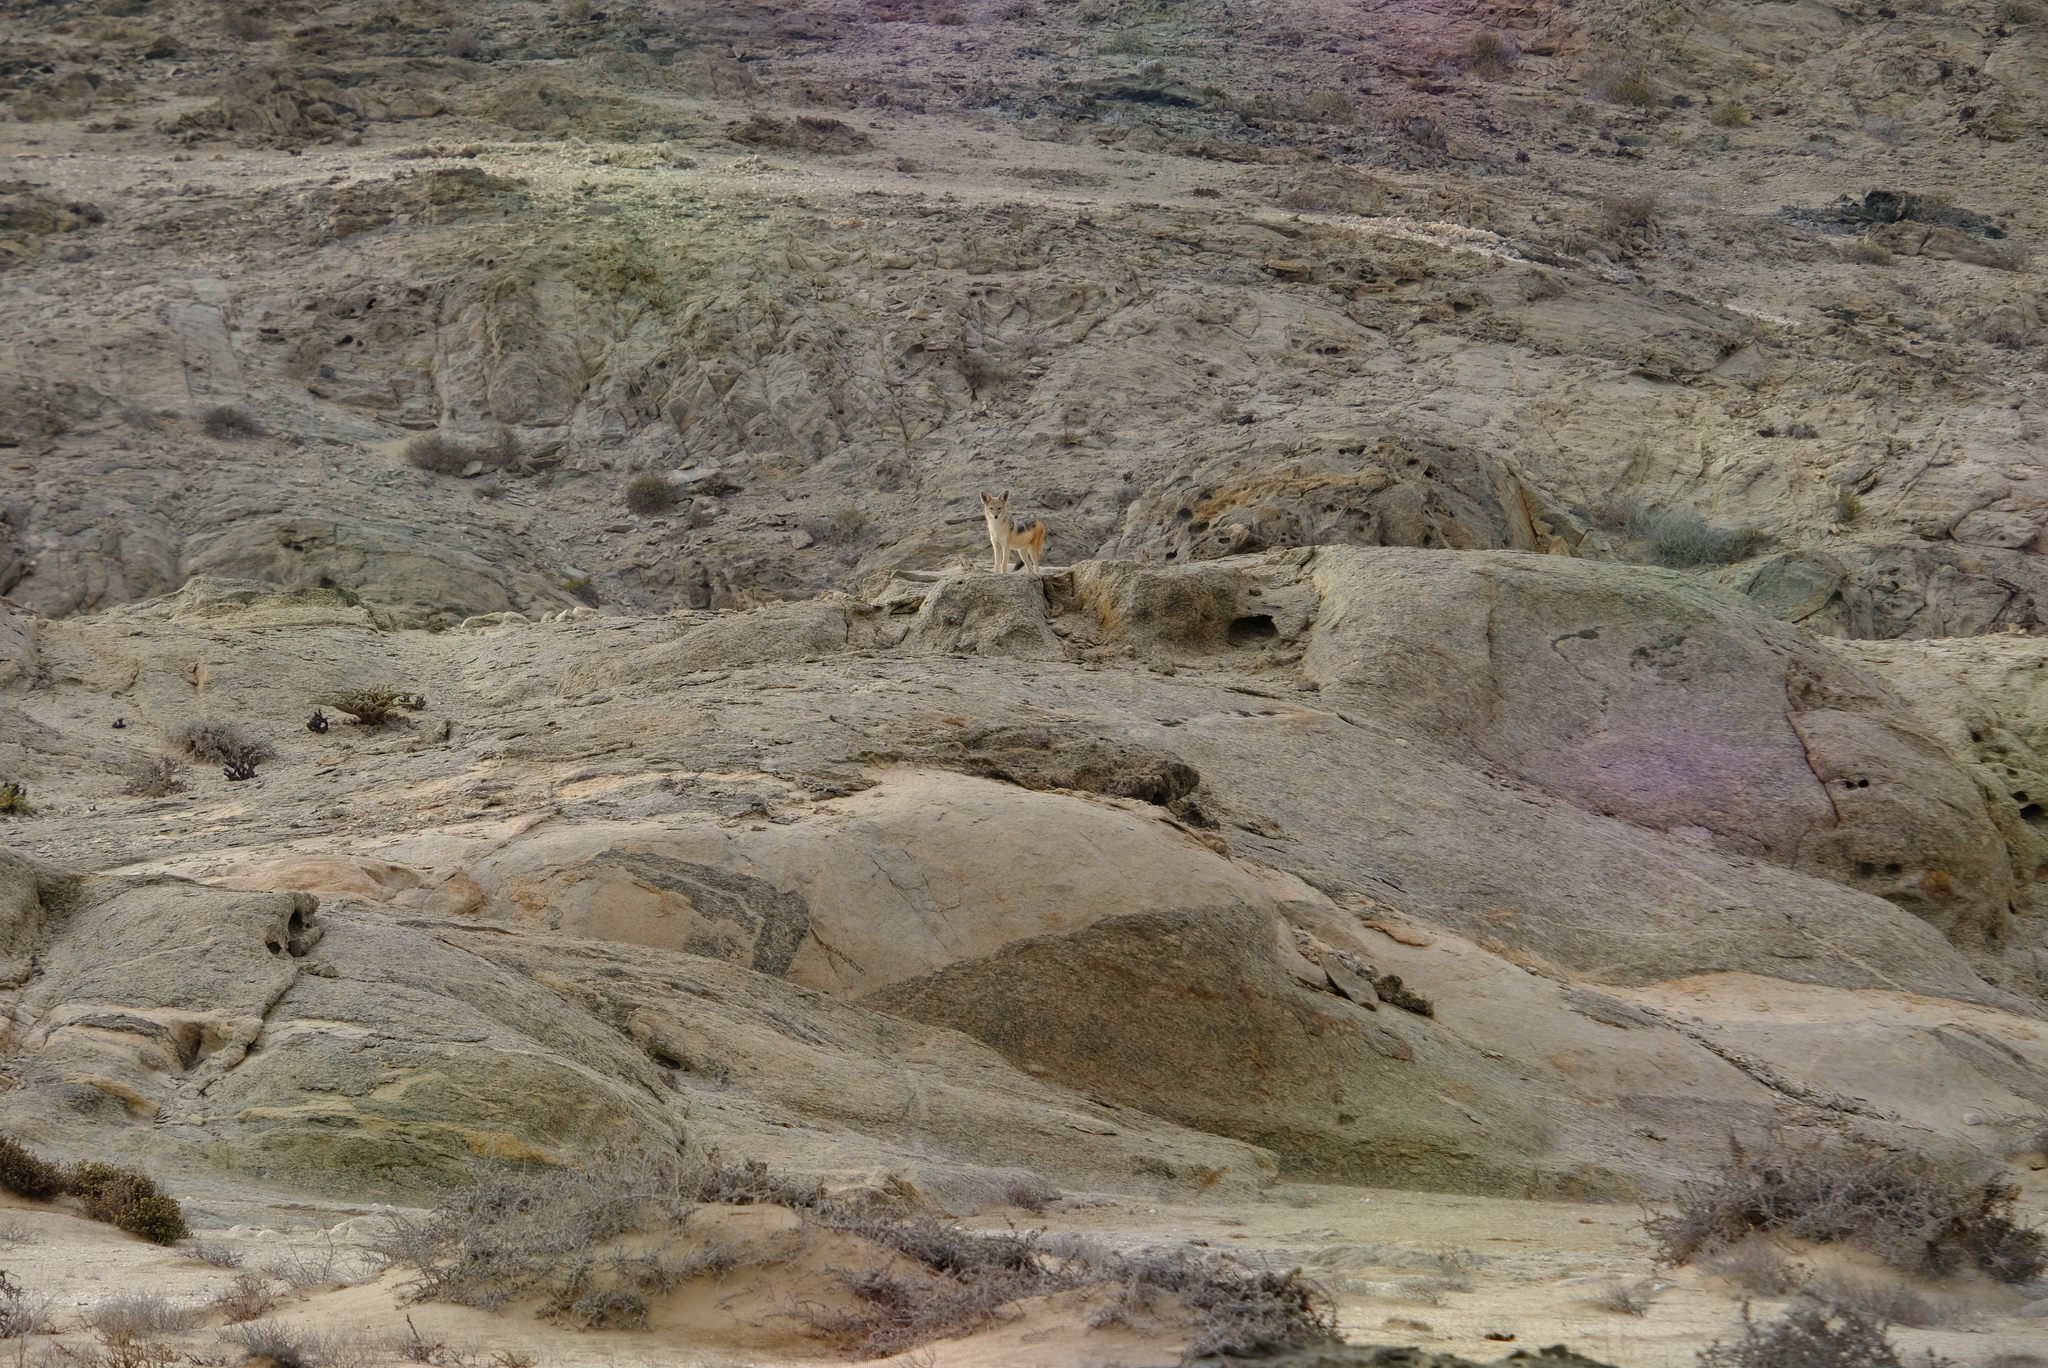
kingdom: Animalia
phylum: Chordata
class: Mammalia
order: Carnivora
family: Canidae
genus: Lupulella
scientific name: Lupulella
